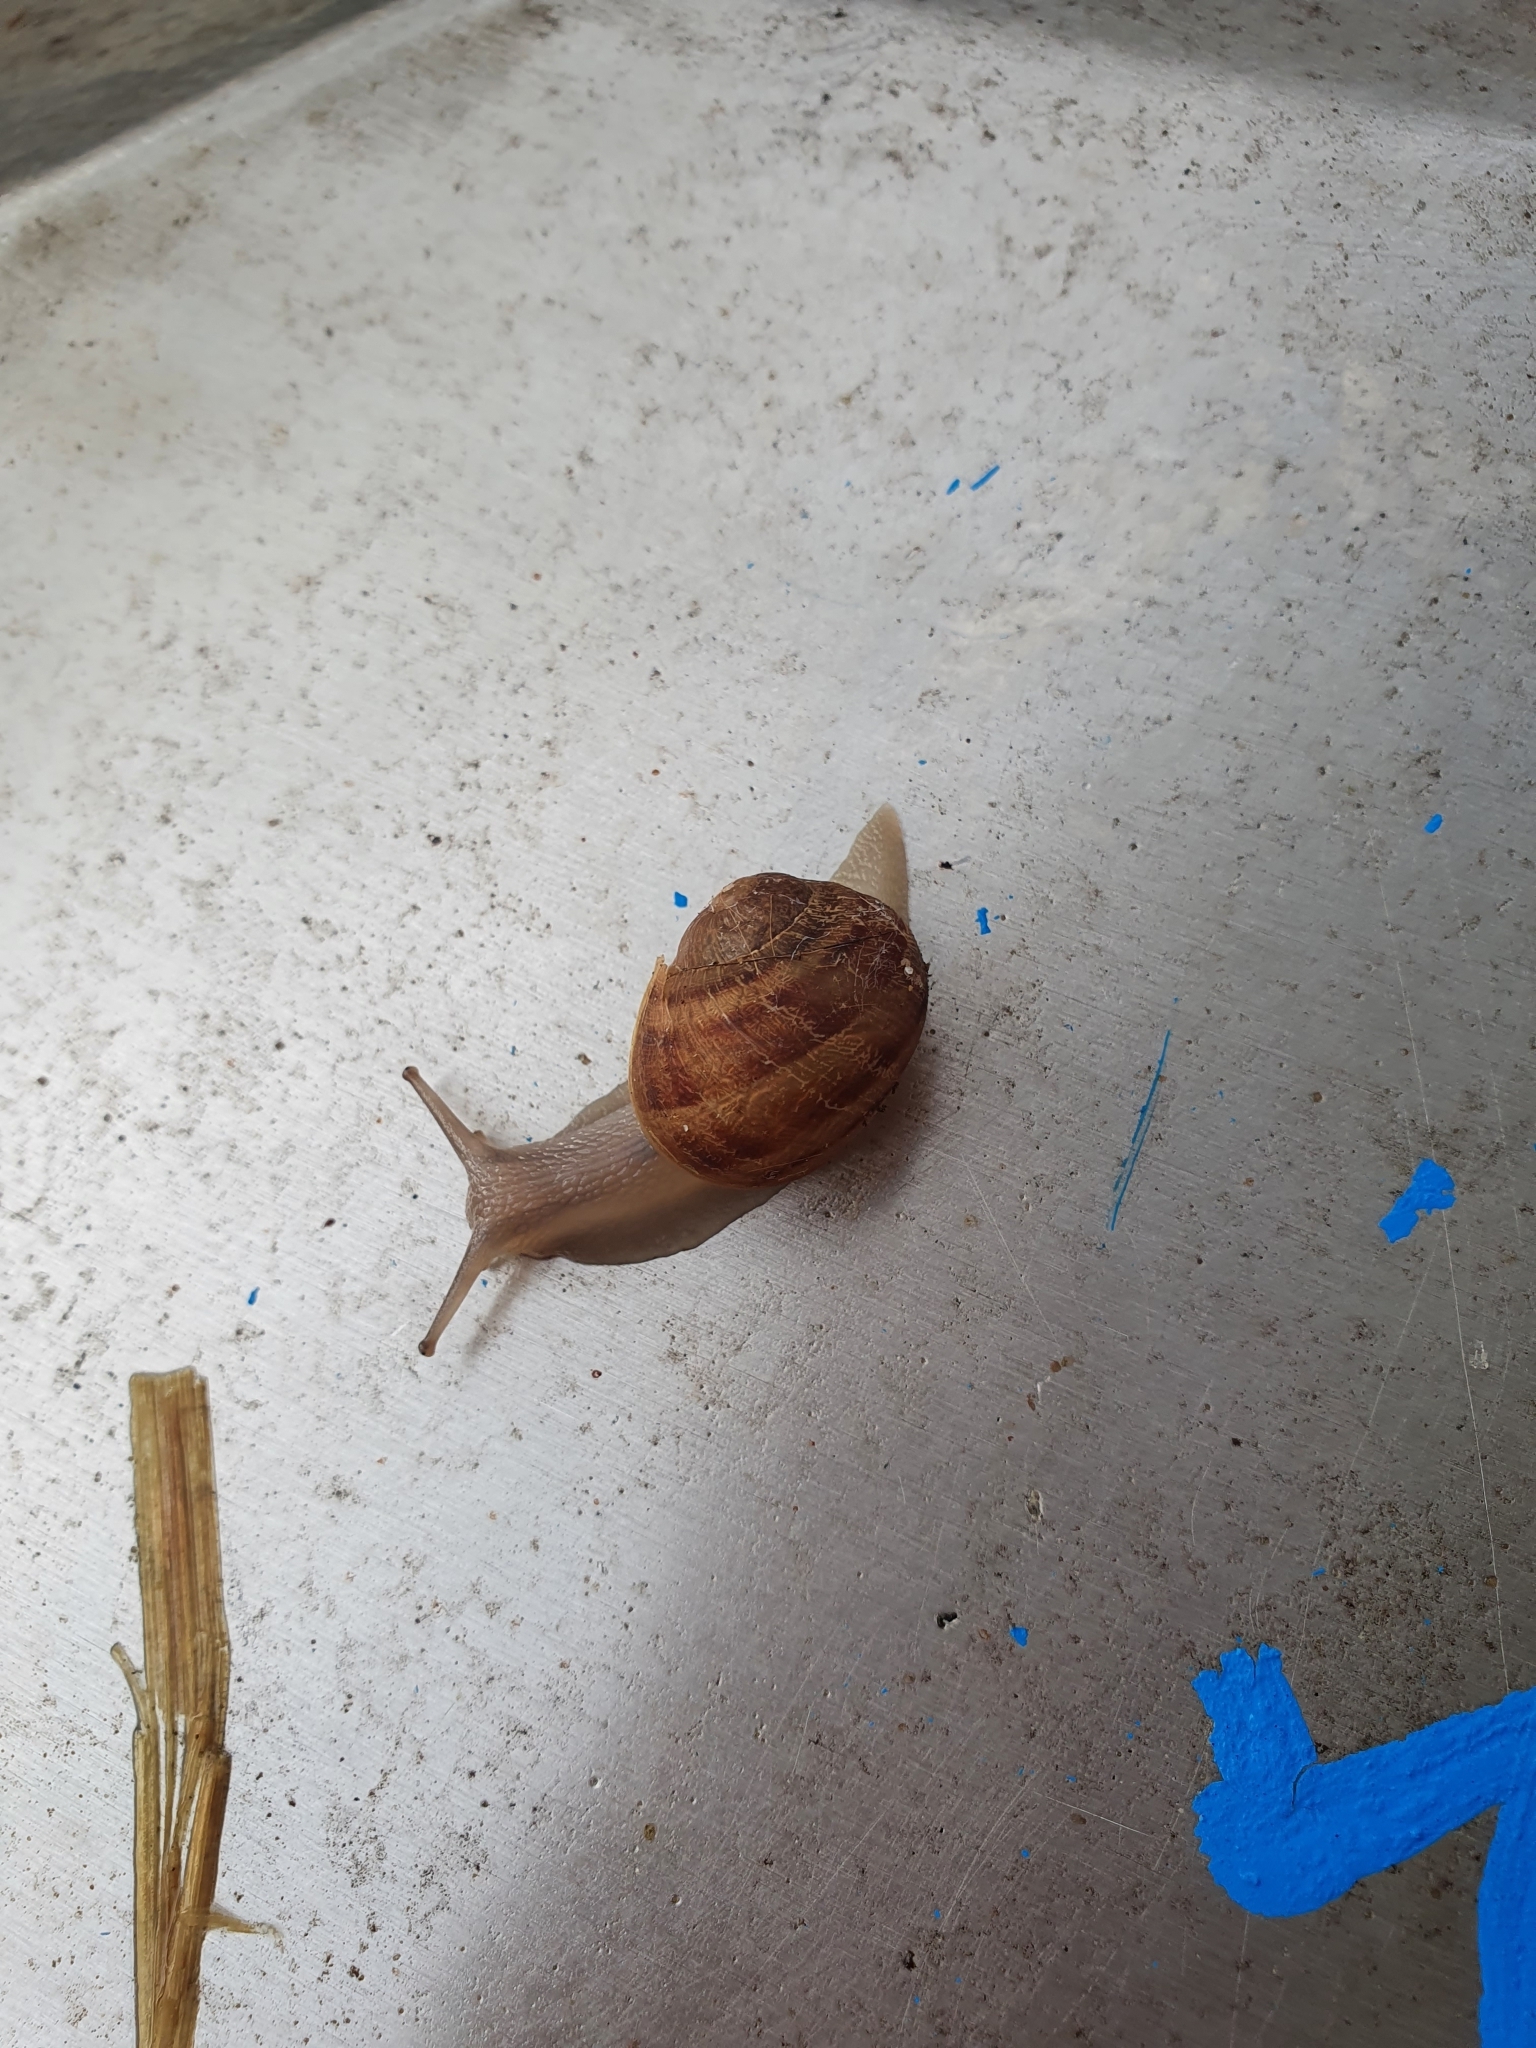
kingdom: Animalia
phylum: Mollusca
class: Gastropoda
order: Stylommatophora
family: Helicidae
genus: Cornu
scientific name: Cornu aspersum
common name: Brown garden snail
